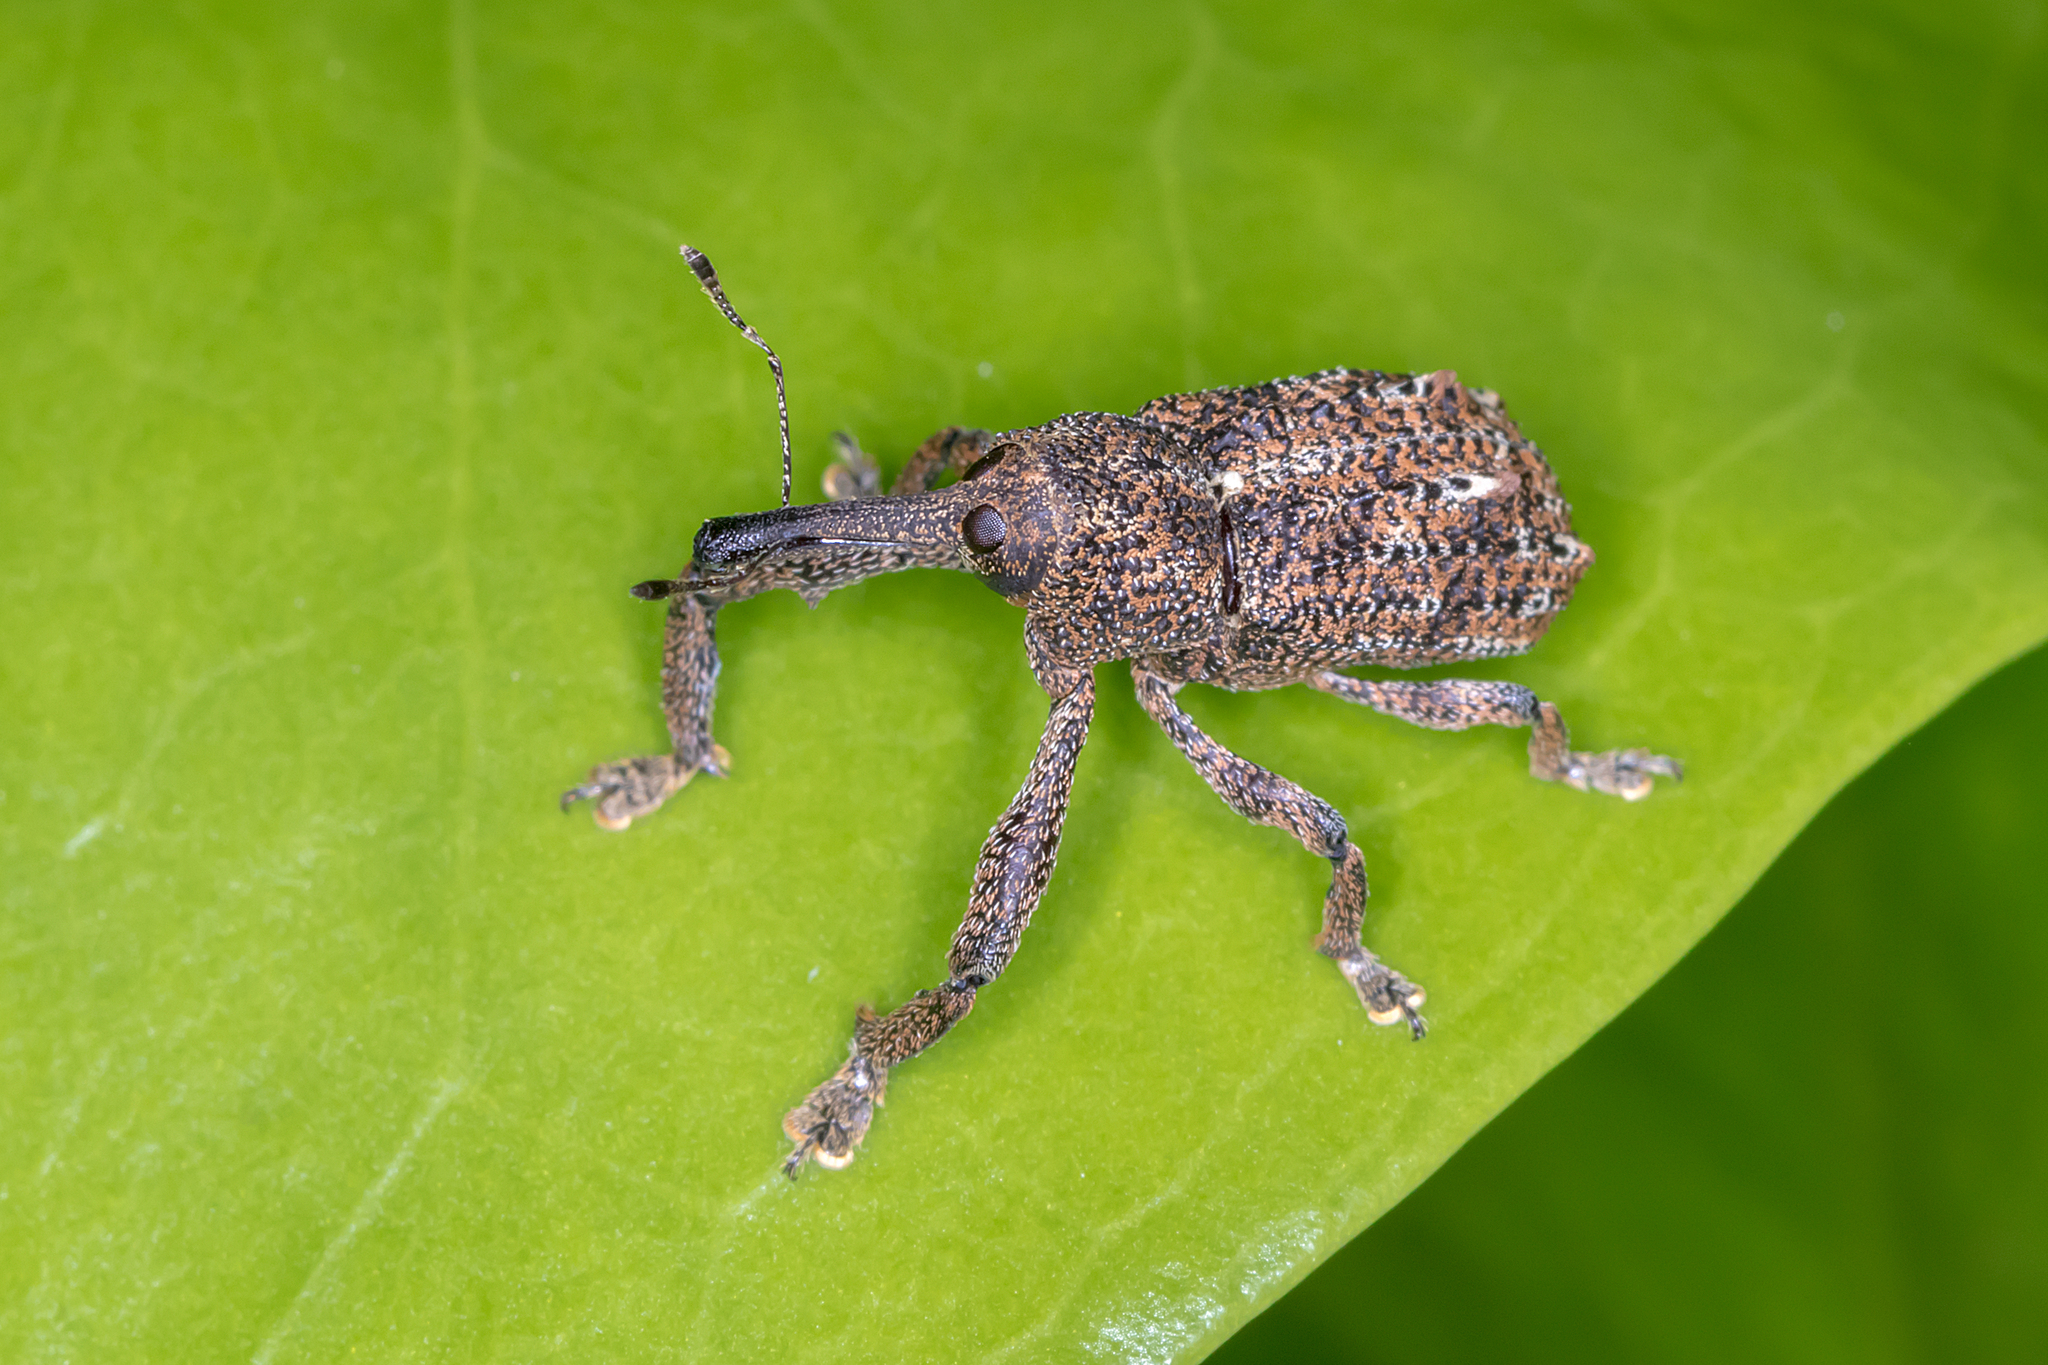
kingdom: Animalia
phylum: Arthropoda
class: Insecta
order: Coleoptera
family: Curculionidae
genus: Orthorhinus
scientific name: Orthorhinus cylindrirostris
